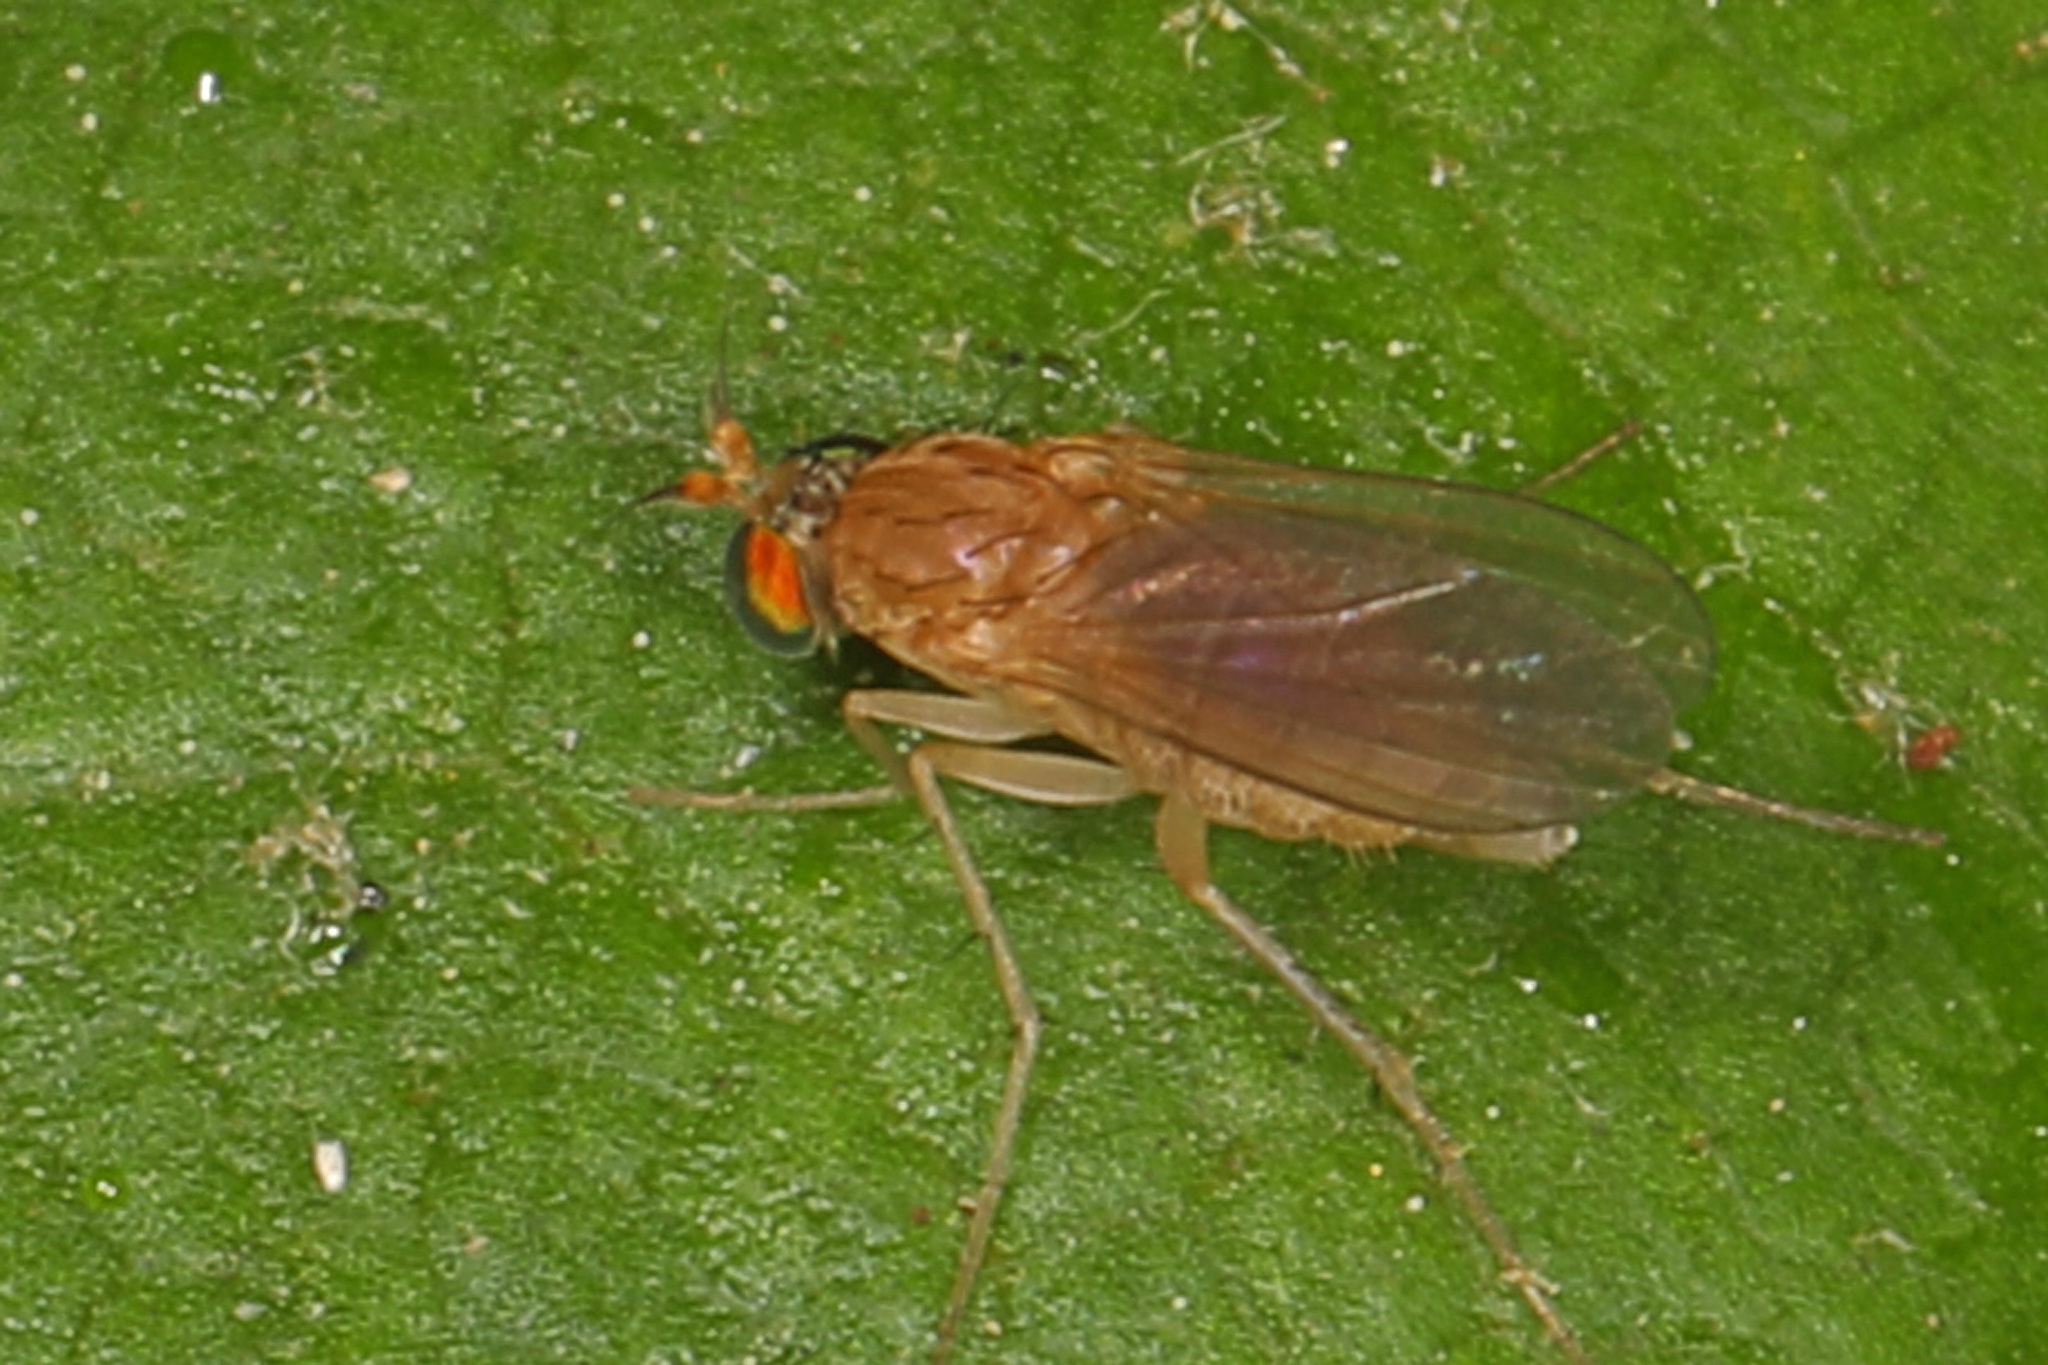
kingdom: Animalia
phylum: Arthropoda
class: Insecta
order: Diptera
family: Dolichopodidae
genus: Gymnopternus
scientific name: Gymnopternus flavus
